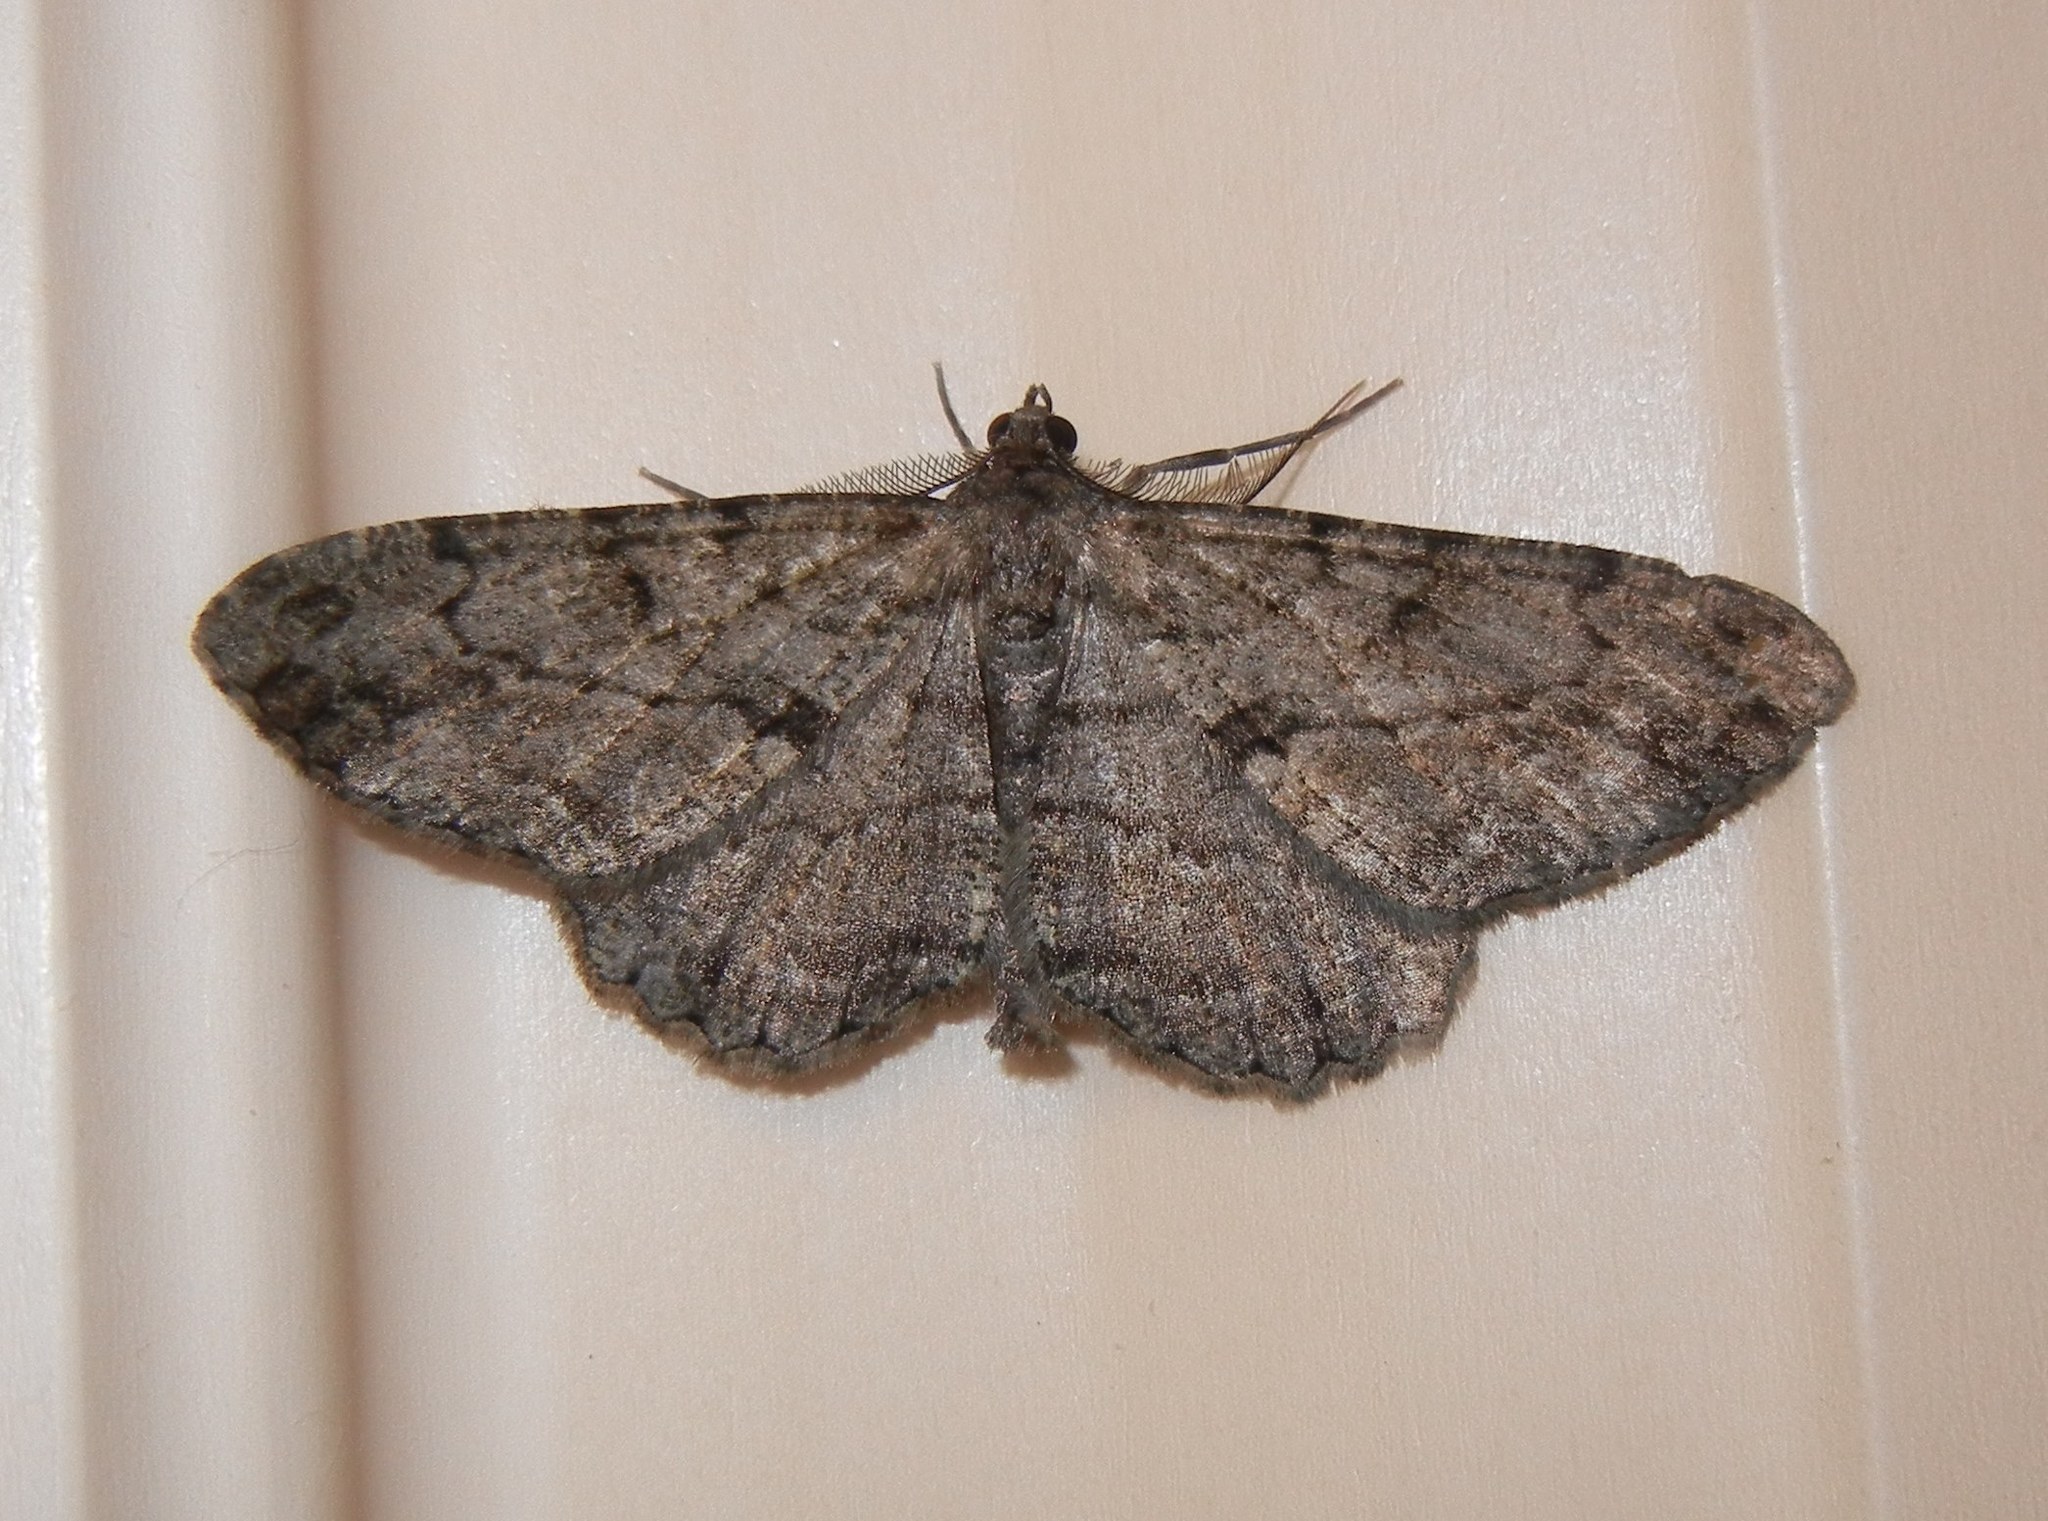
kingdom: Animalia
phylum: Arthropoda
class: Insecta
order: Lepidoptera
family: Geometridae
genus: Peribatodes
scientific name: Peribatodes rhomboidaria
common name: Willow beauty
